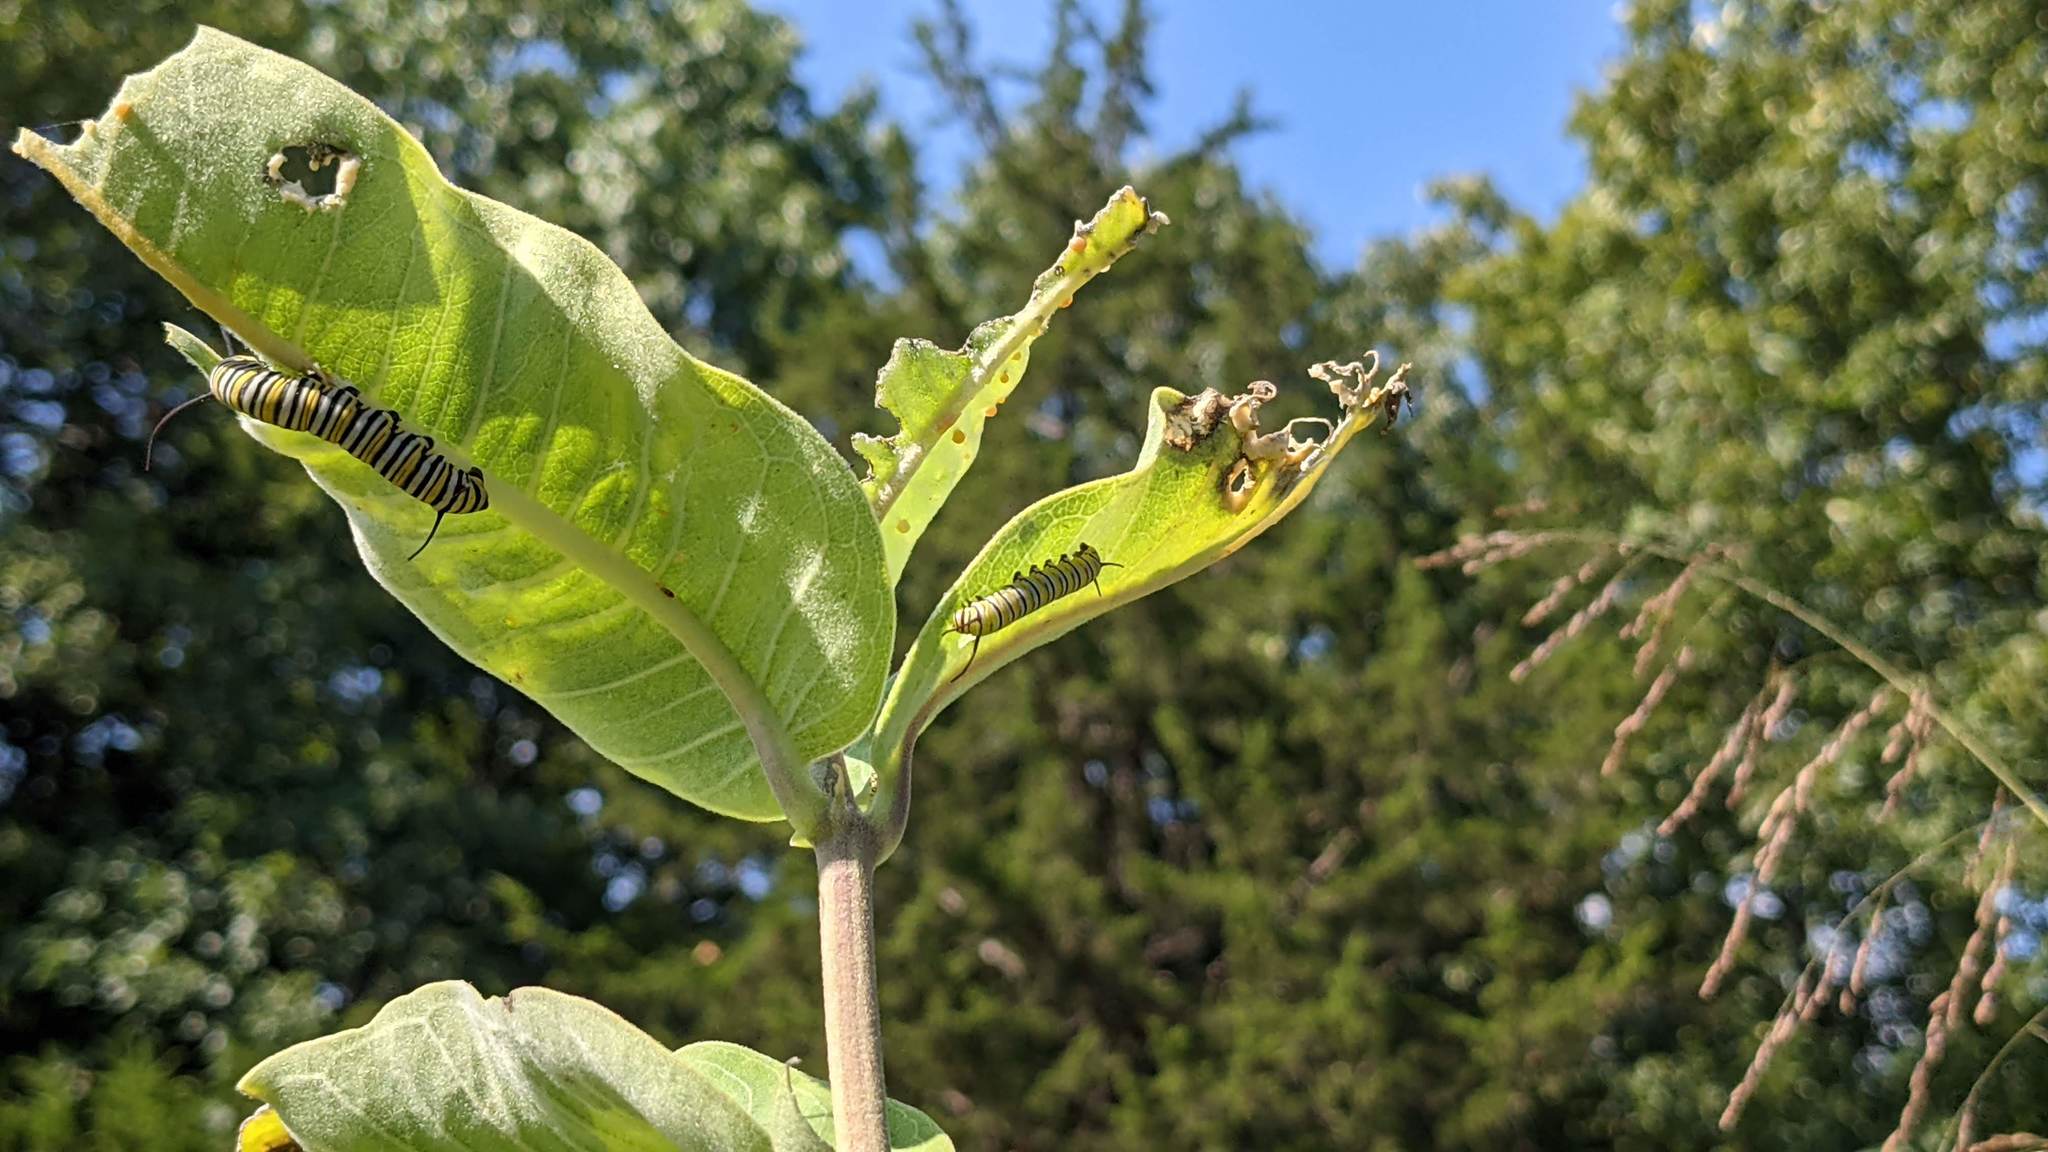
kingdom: Animalia
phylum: Arthropoda
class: Insecta
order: Lepidoptera
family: Nymphalidae
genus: Danaus
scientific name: Danaus plexippus
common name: Monarch
